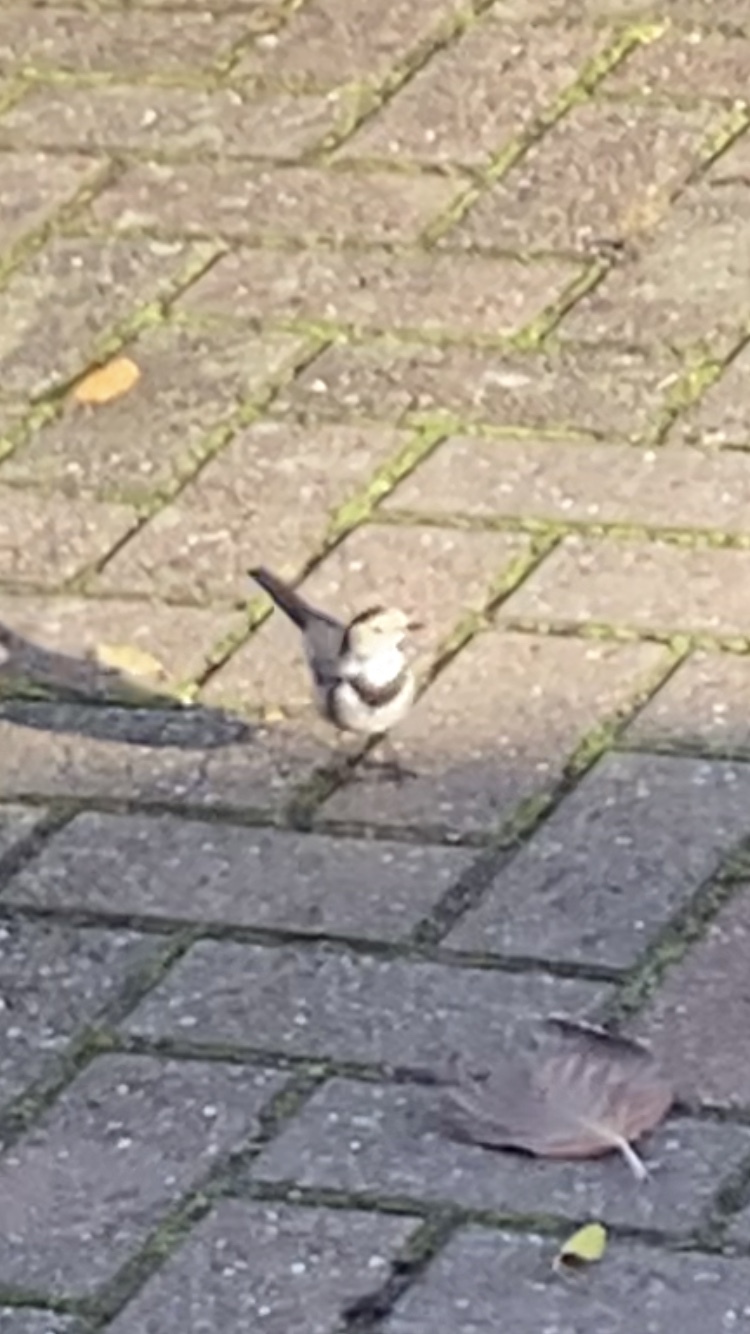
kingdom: Animalia
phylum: Chordata
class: Aves
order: Passeriformes
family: Motacillidae
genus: Motacilla
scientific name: Motacilla alba
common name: White wagtail
